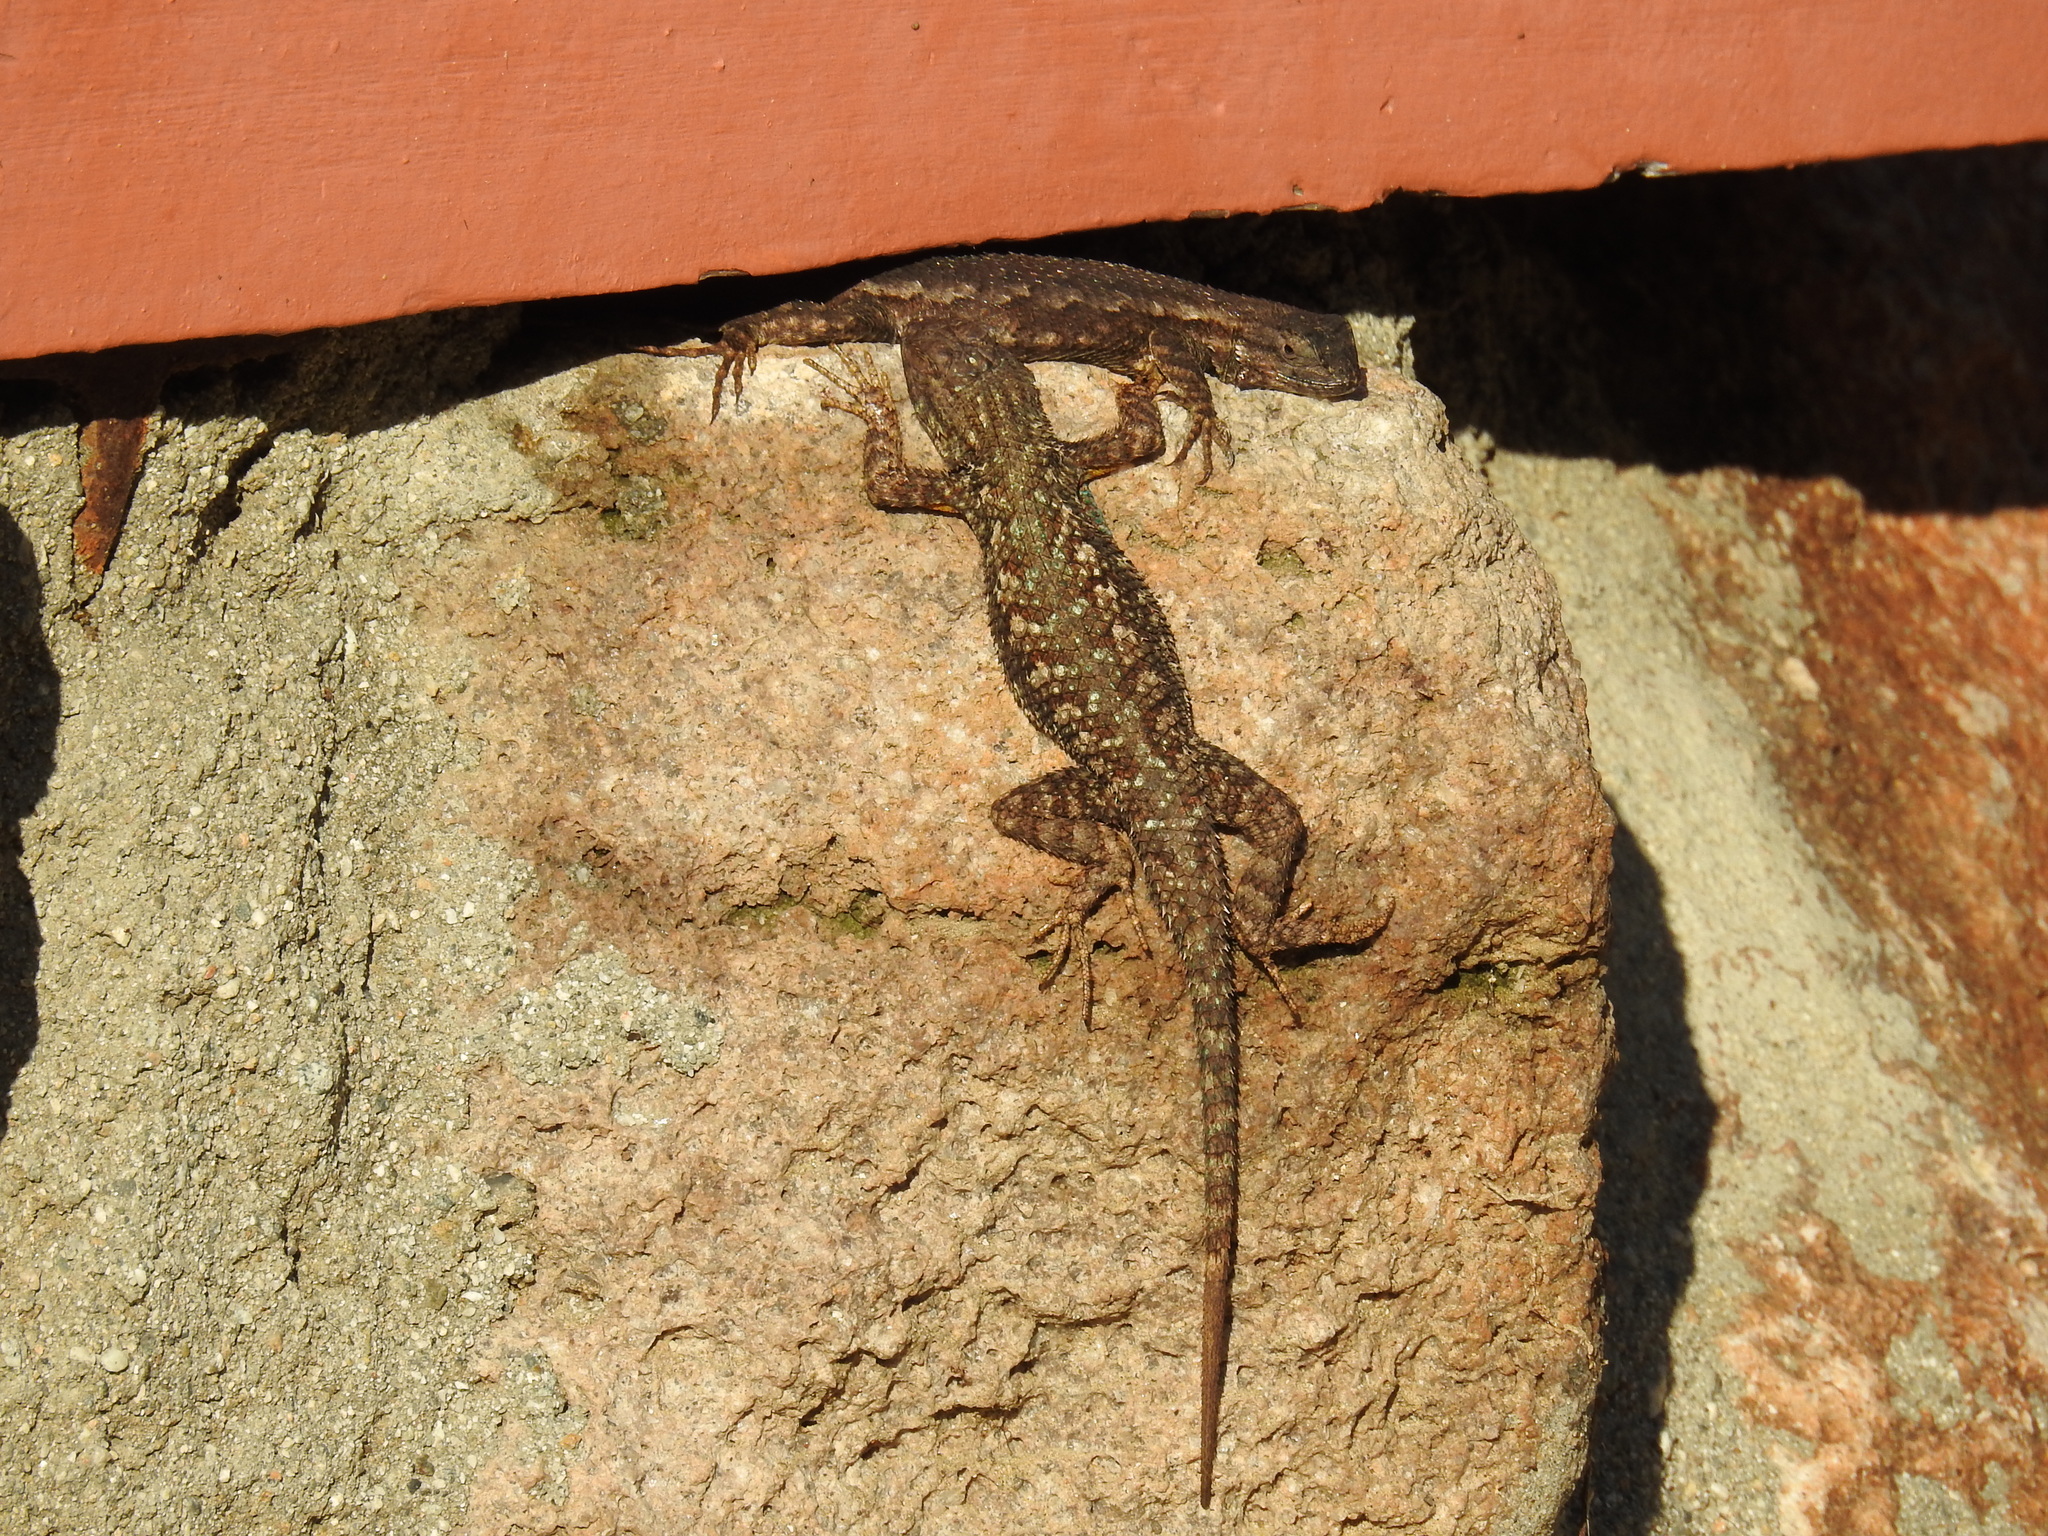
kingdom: Animalia
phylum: Chordata
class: Squamata
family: Phrynosomatidae
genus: Sceloporus
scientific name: Sceloporus occidentalis
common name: Western fence lizard
